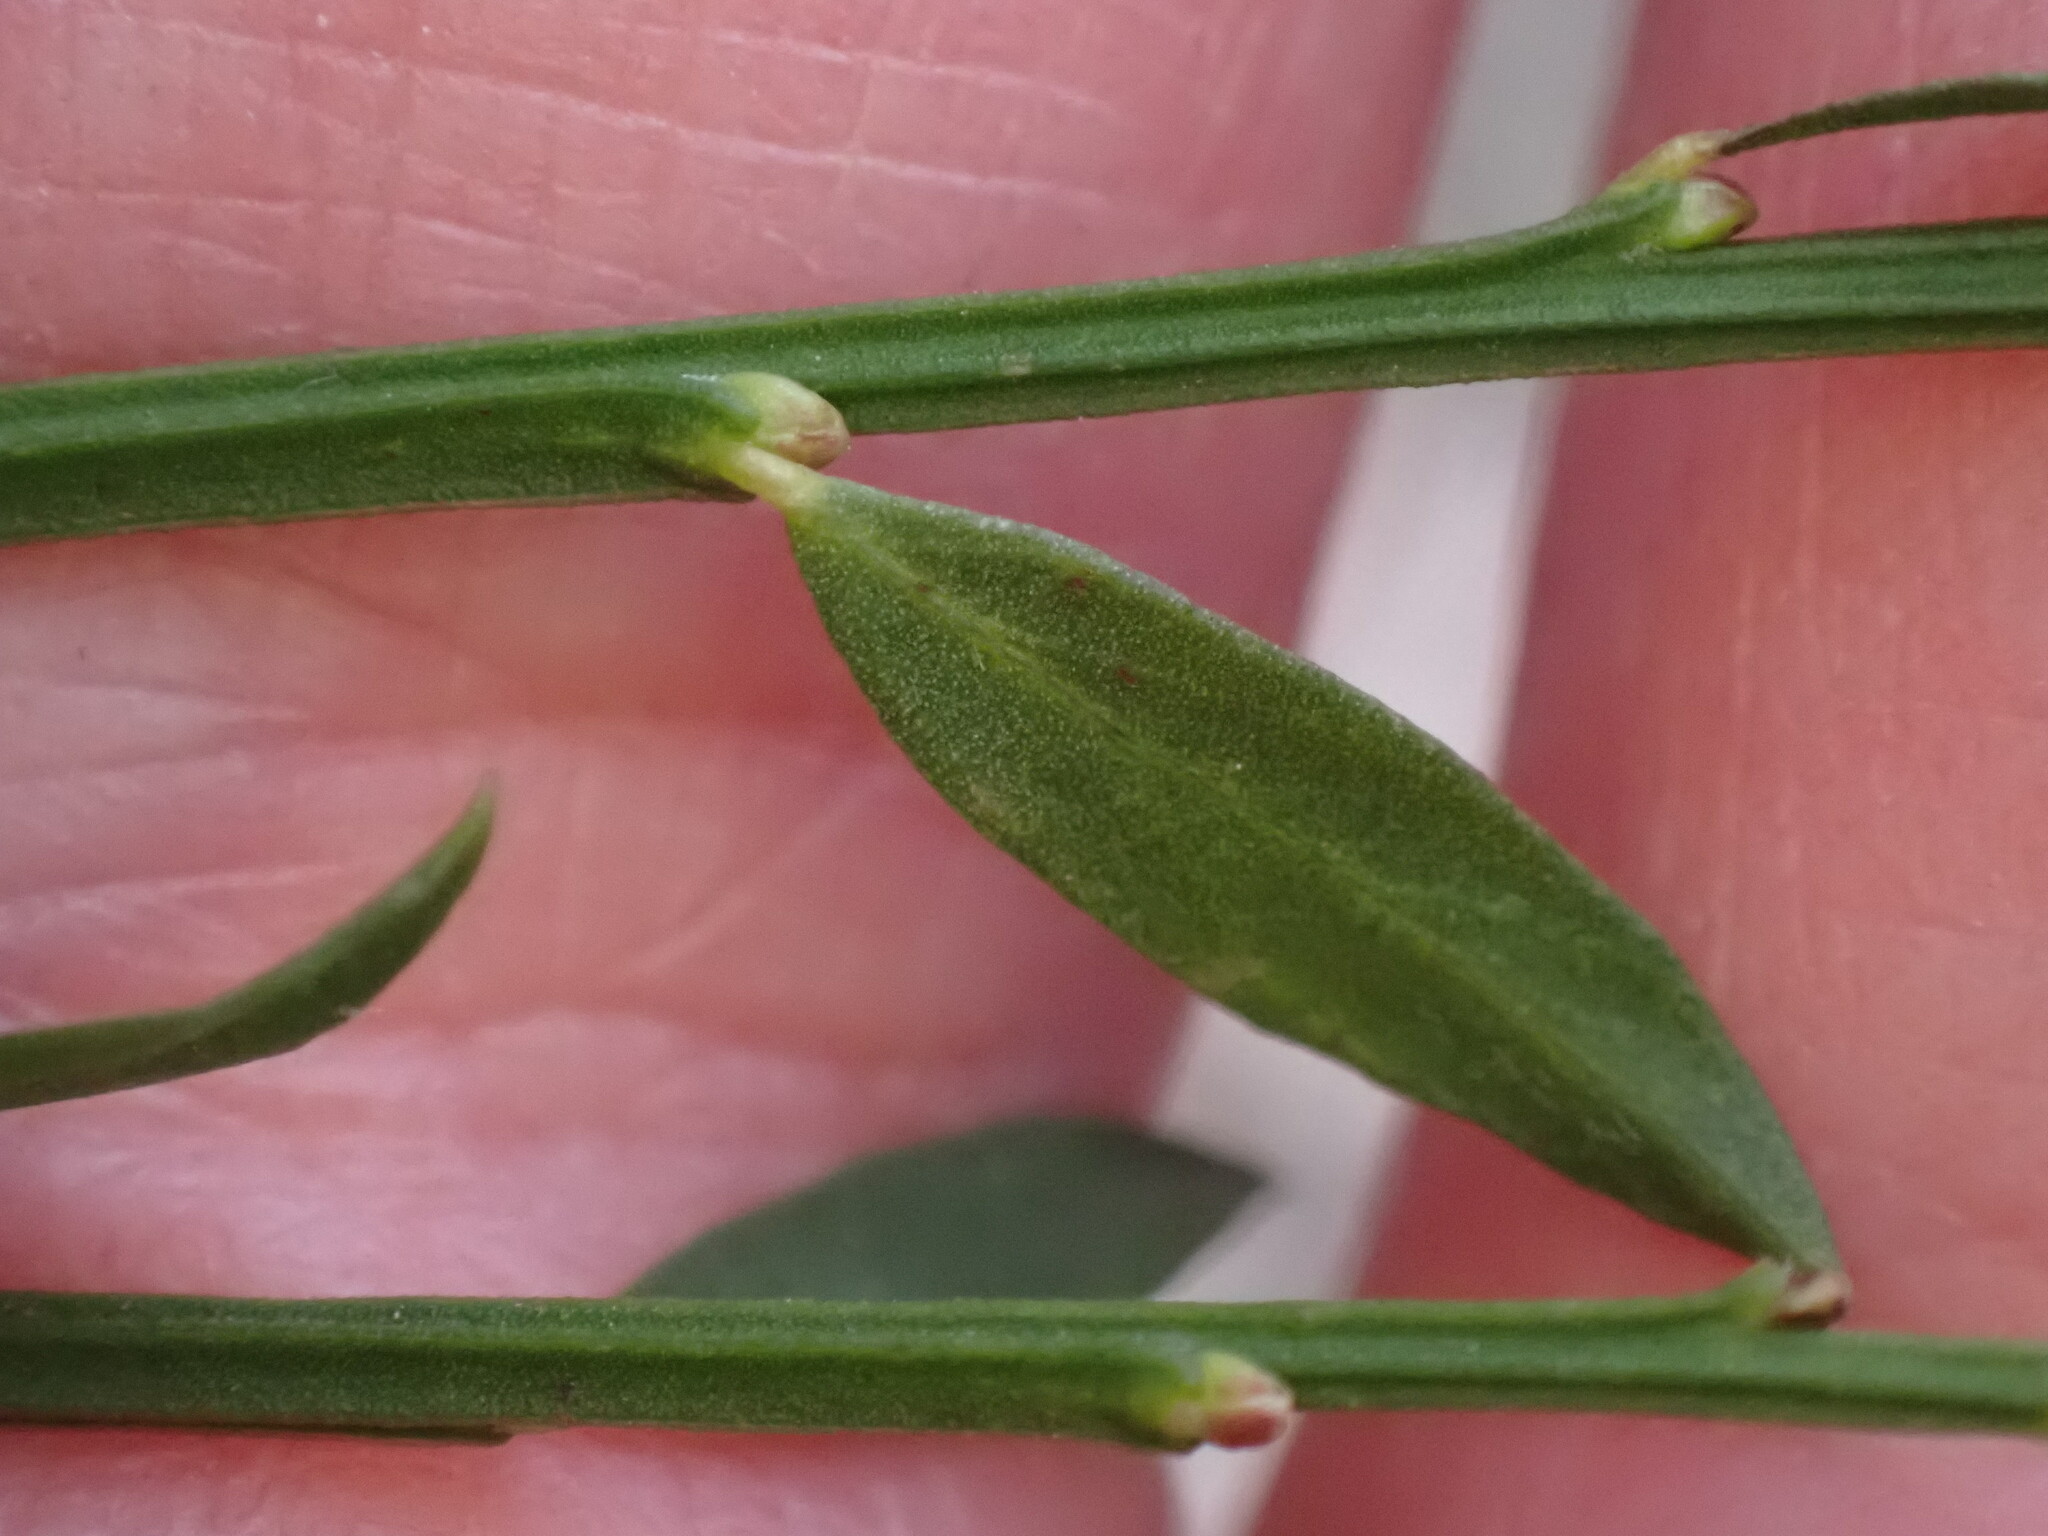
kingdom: Plantae
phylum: Tracheophyta
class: Magnoliopsida
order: Fabales
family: Fabaceae
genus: Cytisus
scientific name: Cytisus scoparius
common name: Scotch broom
